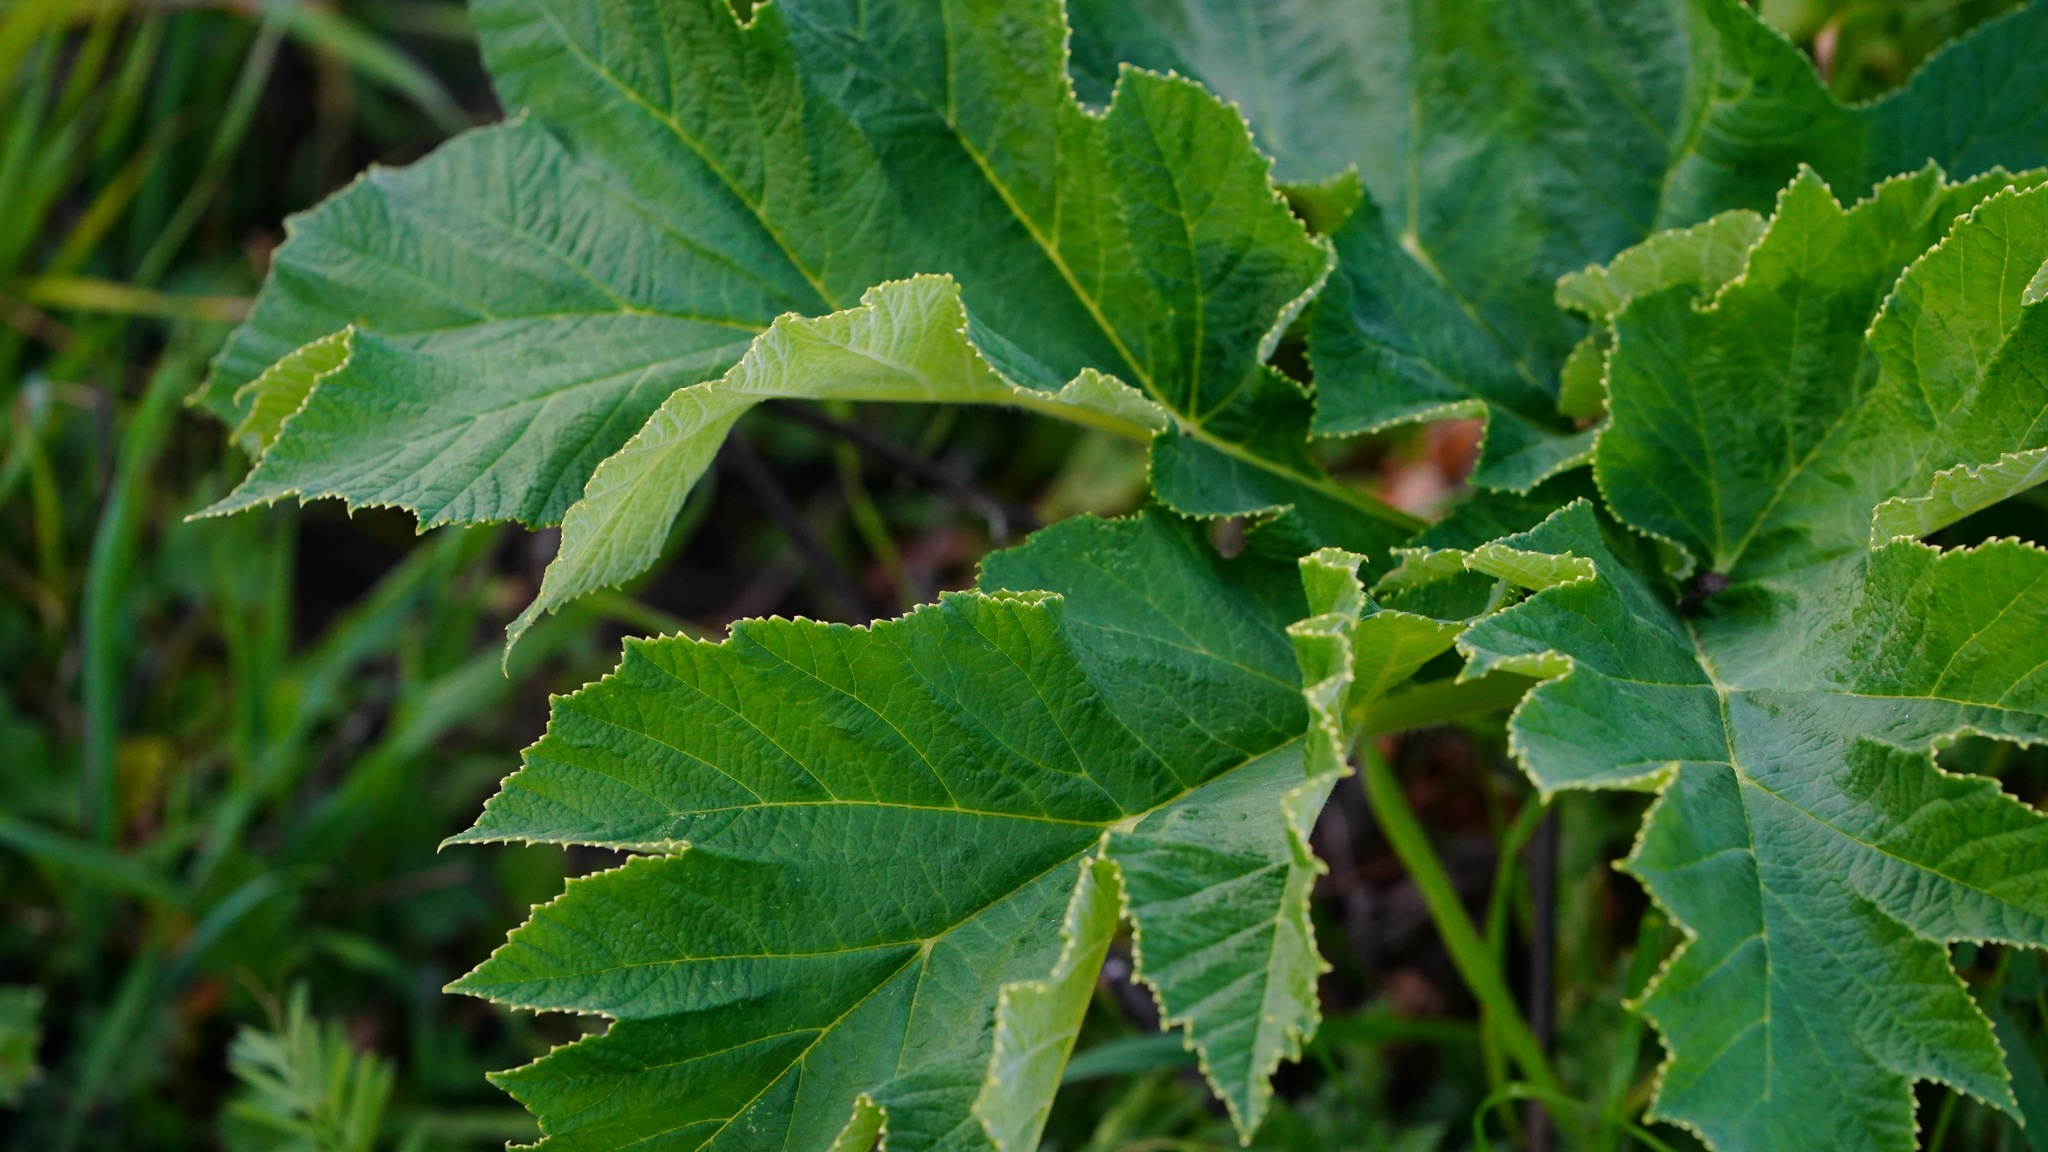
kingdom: Plantae
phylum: Tracheophyta
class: Magnoliopsida
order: Apiales
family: Apiaceae
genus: Heracleum
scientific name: Heracleum maximum
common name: American cow parsnip
